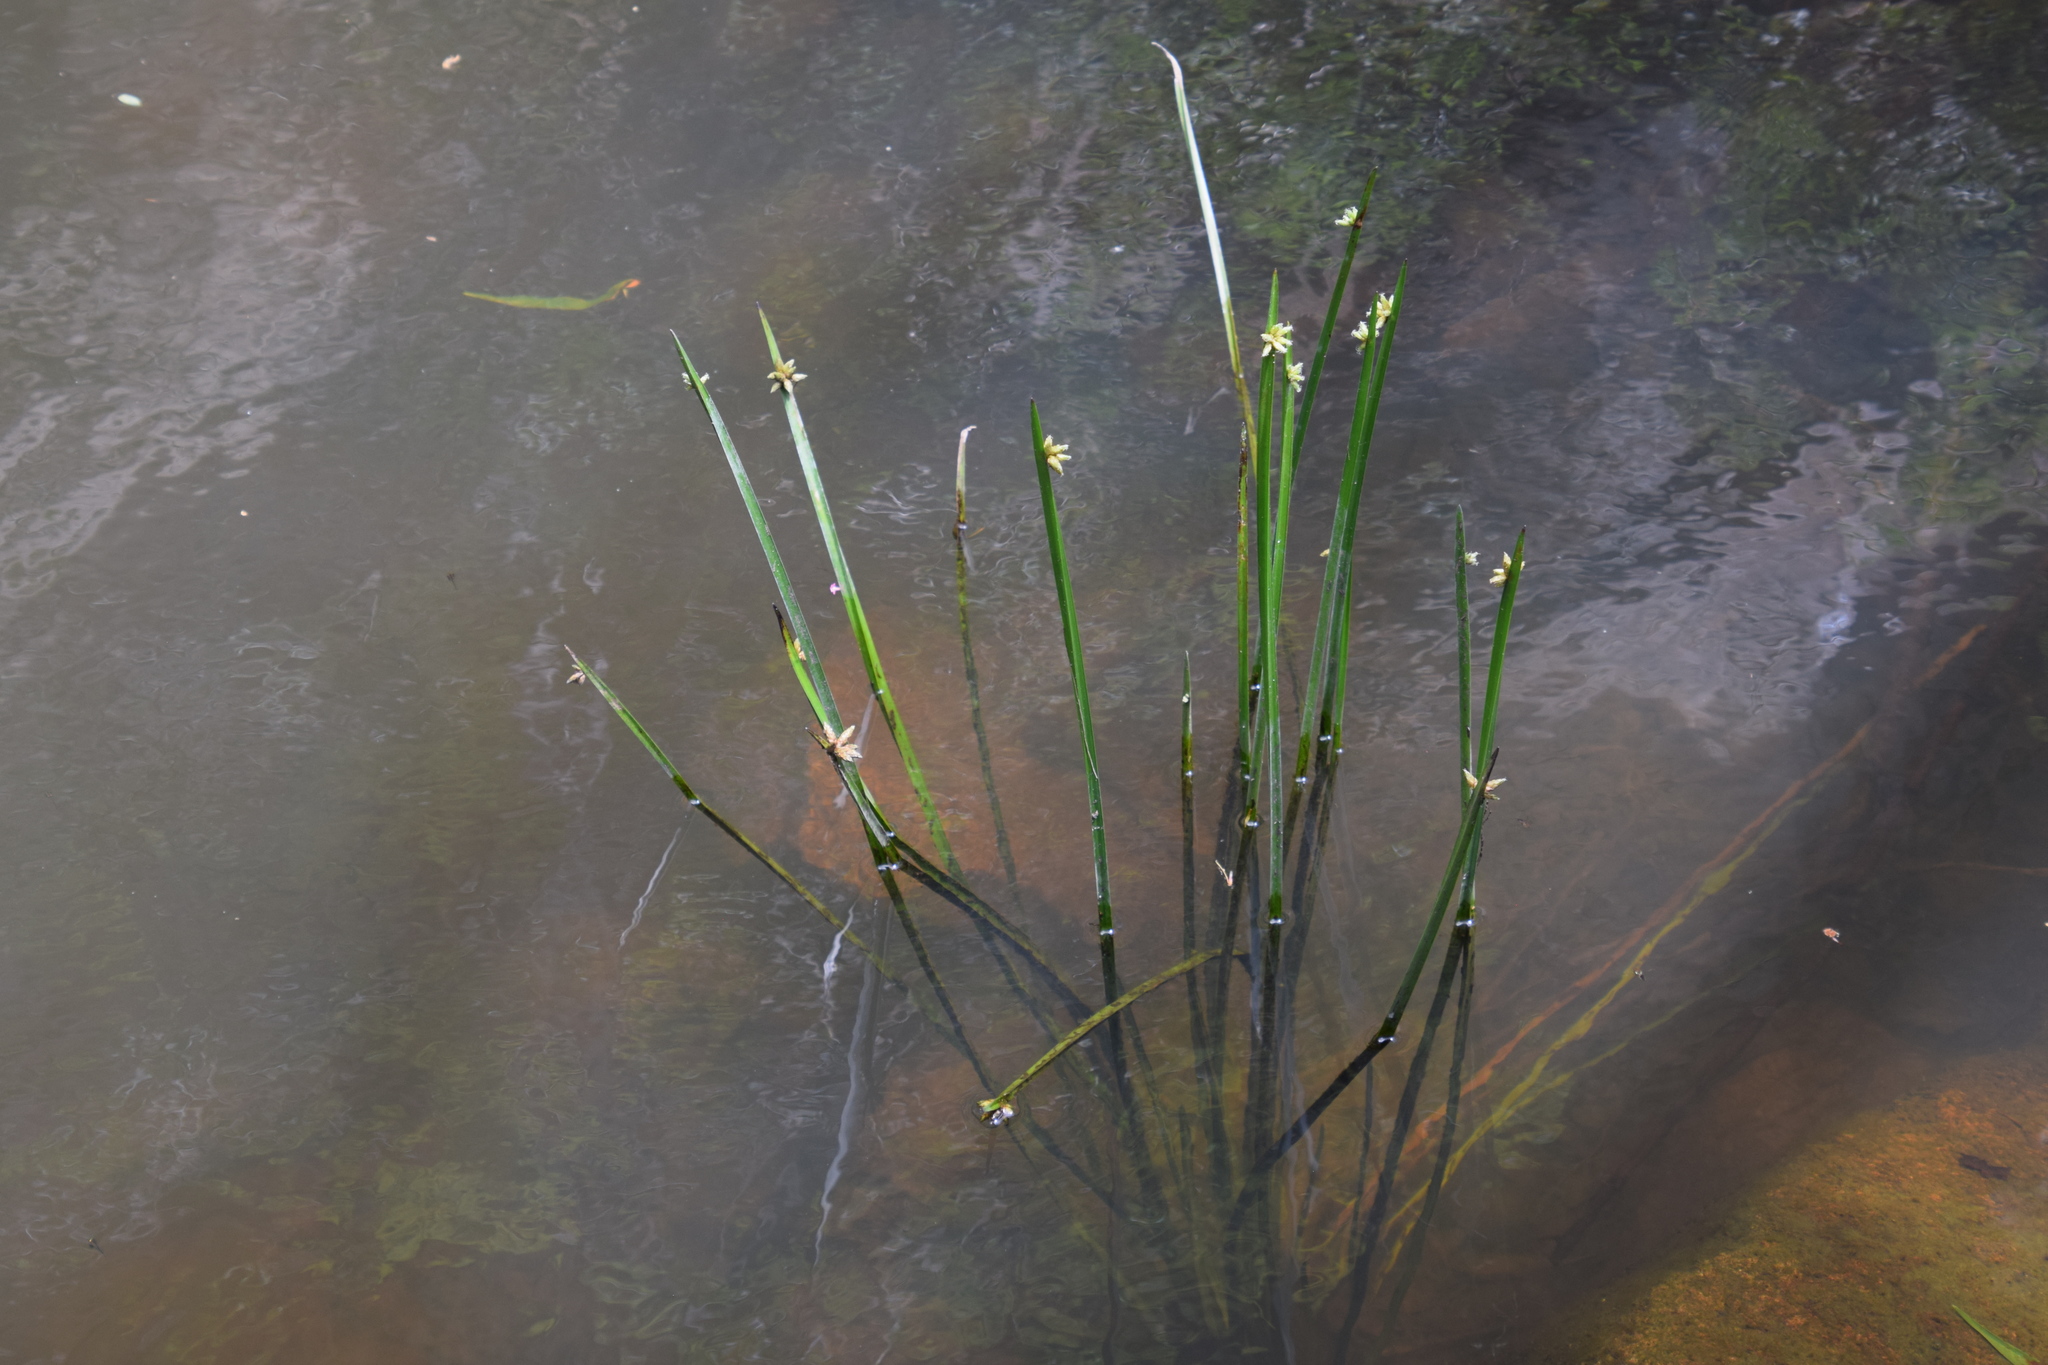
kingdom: Plantae
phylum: Tracheophyta
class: Liliopsida
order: Poales
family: Cyperaceae
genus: Schoenoplectiella
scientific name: Schoenoplectiella mucronata
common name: Bog bulrush
